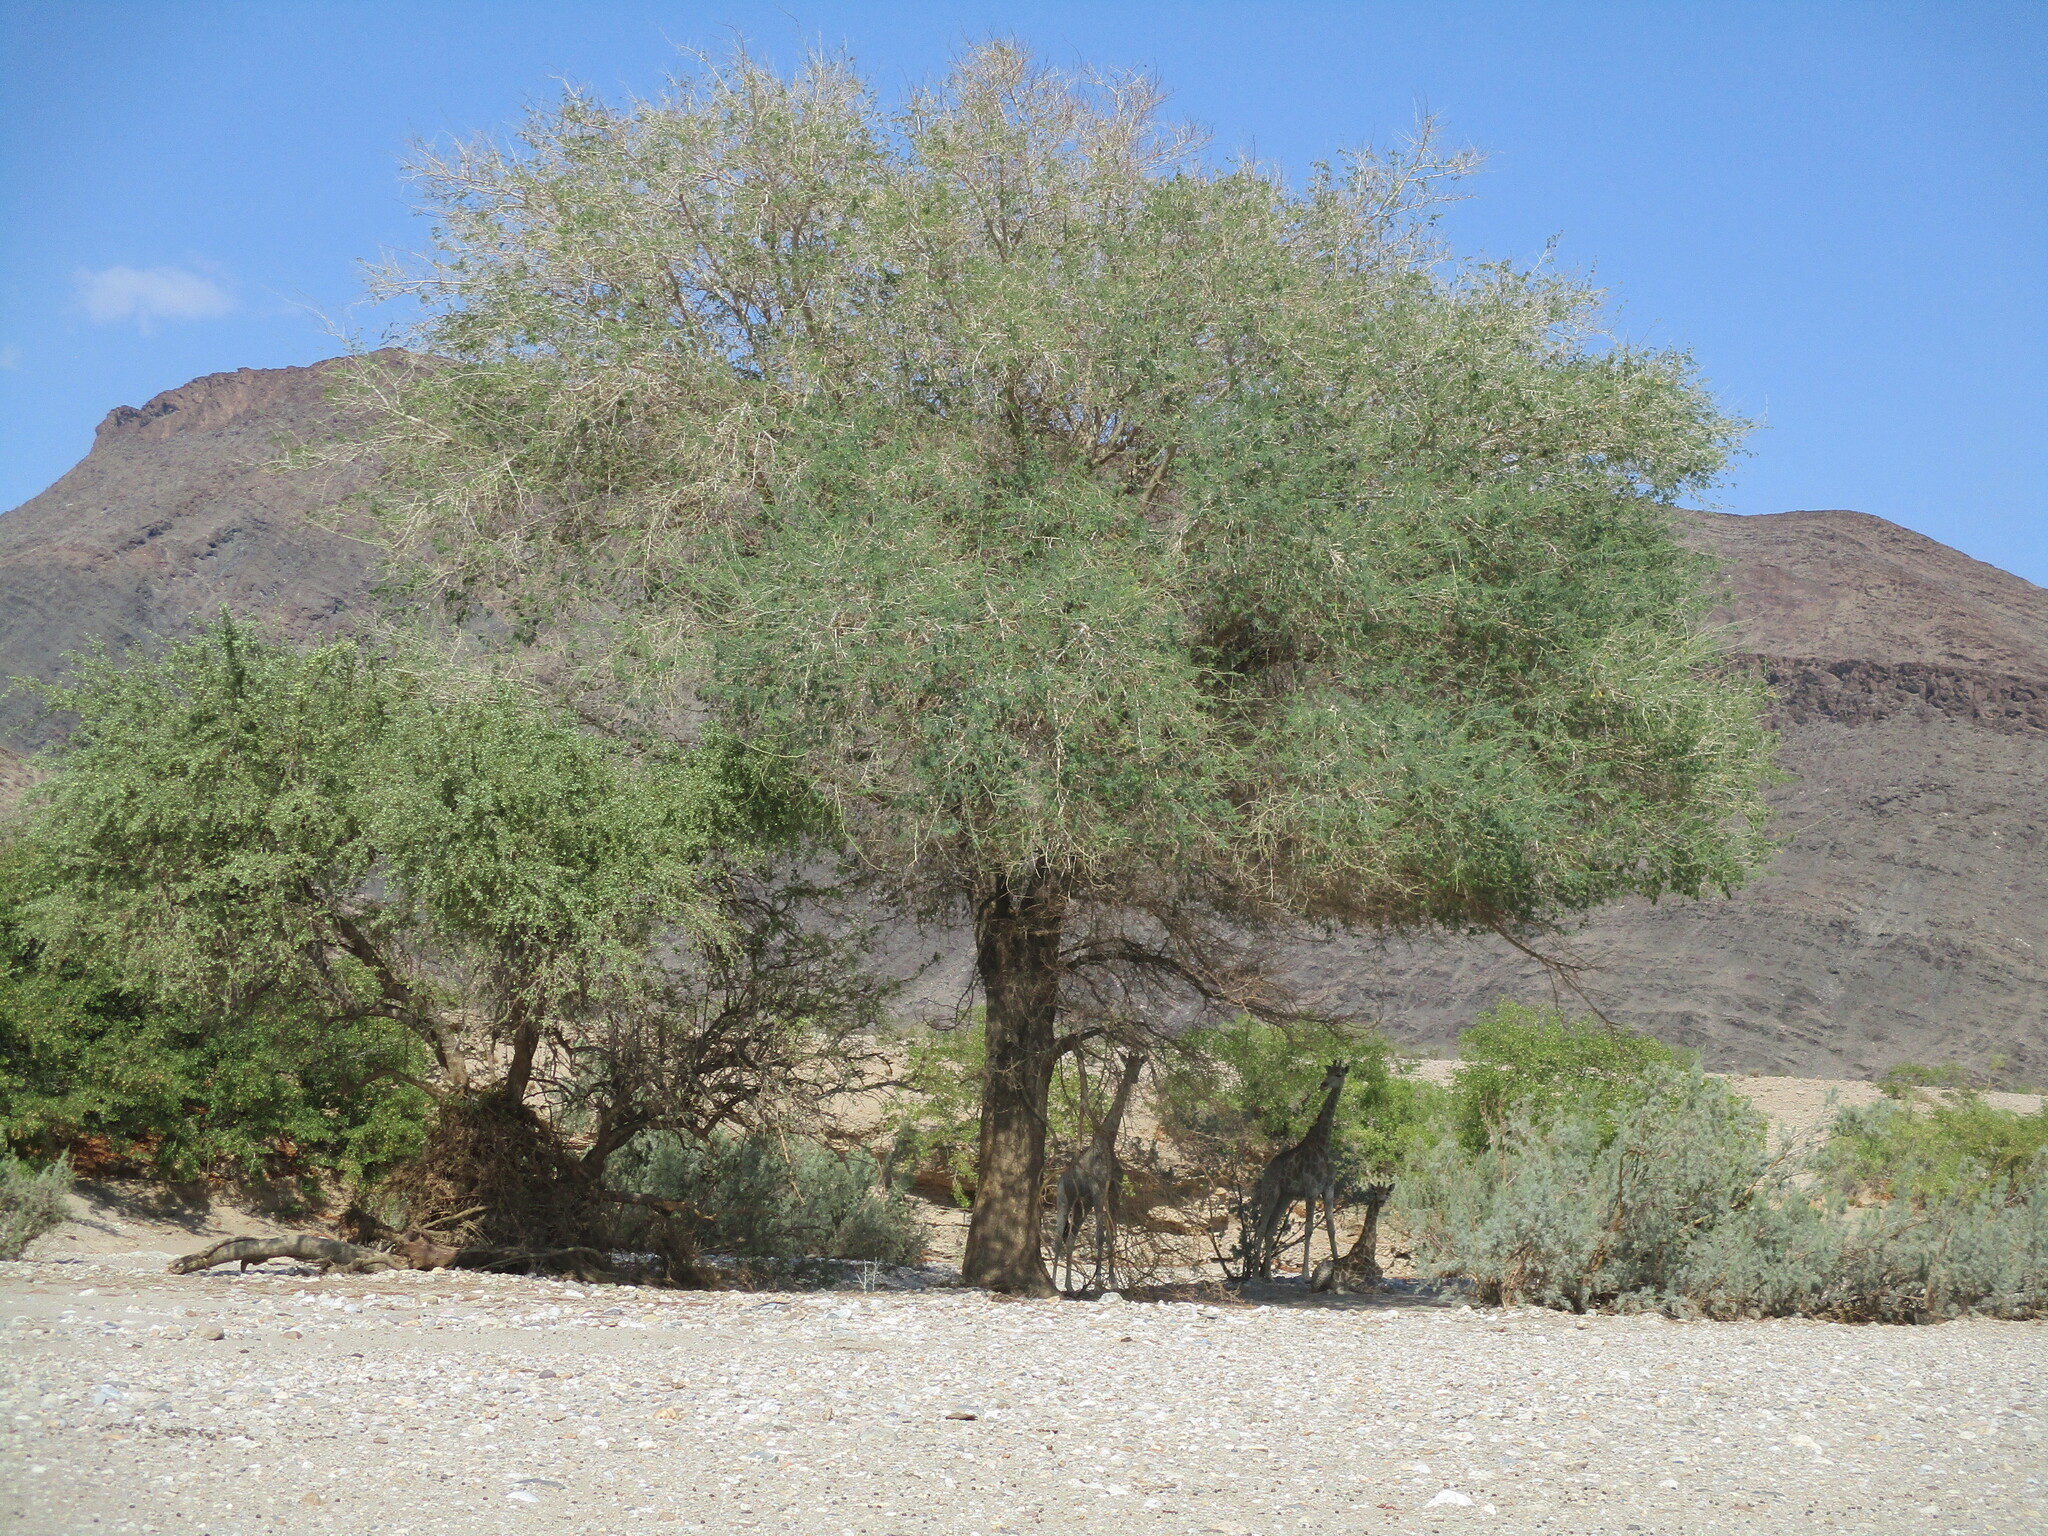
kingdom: Plantae
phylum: Tracheophyta
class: Magnoliopsida
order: Fabales
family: Fabaceae
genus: Faidherbia
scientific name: Faidherbia albida
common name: Anatree
